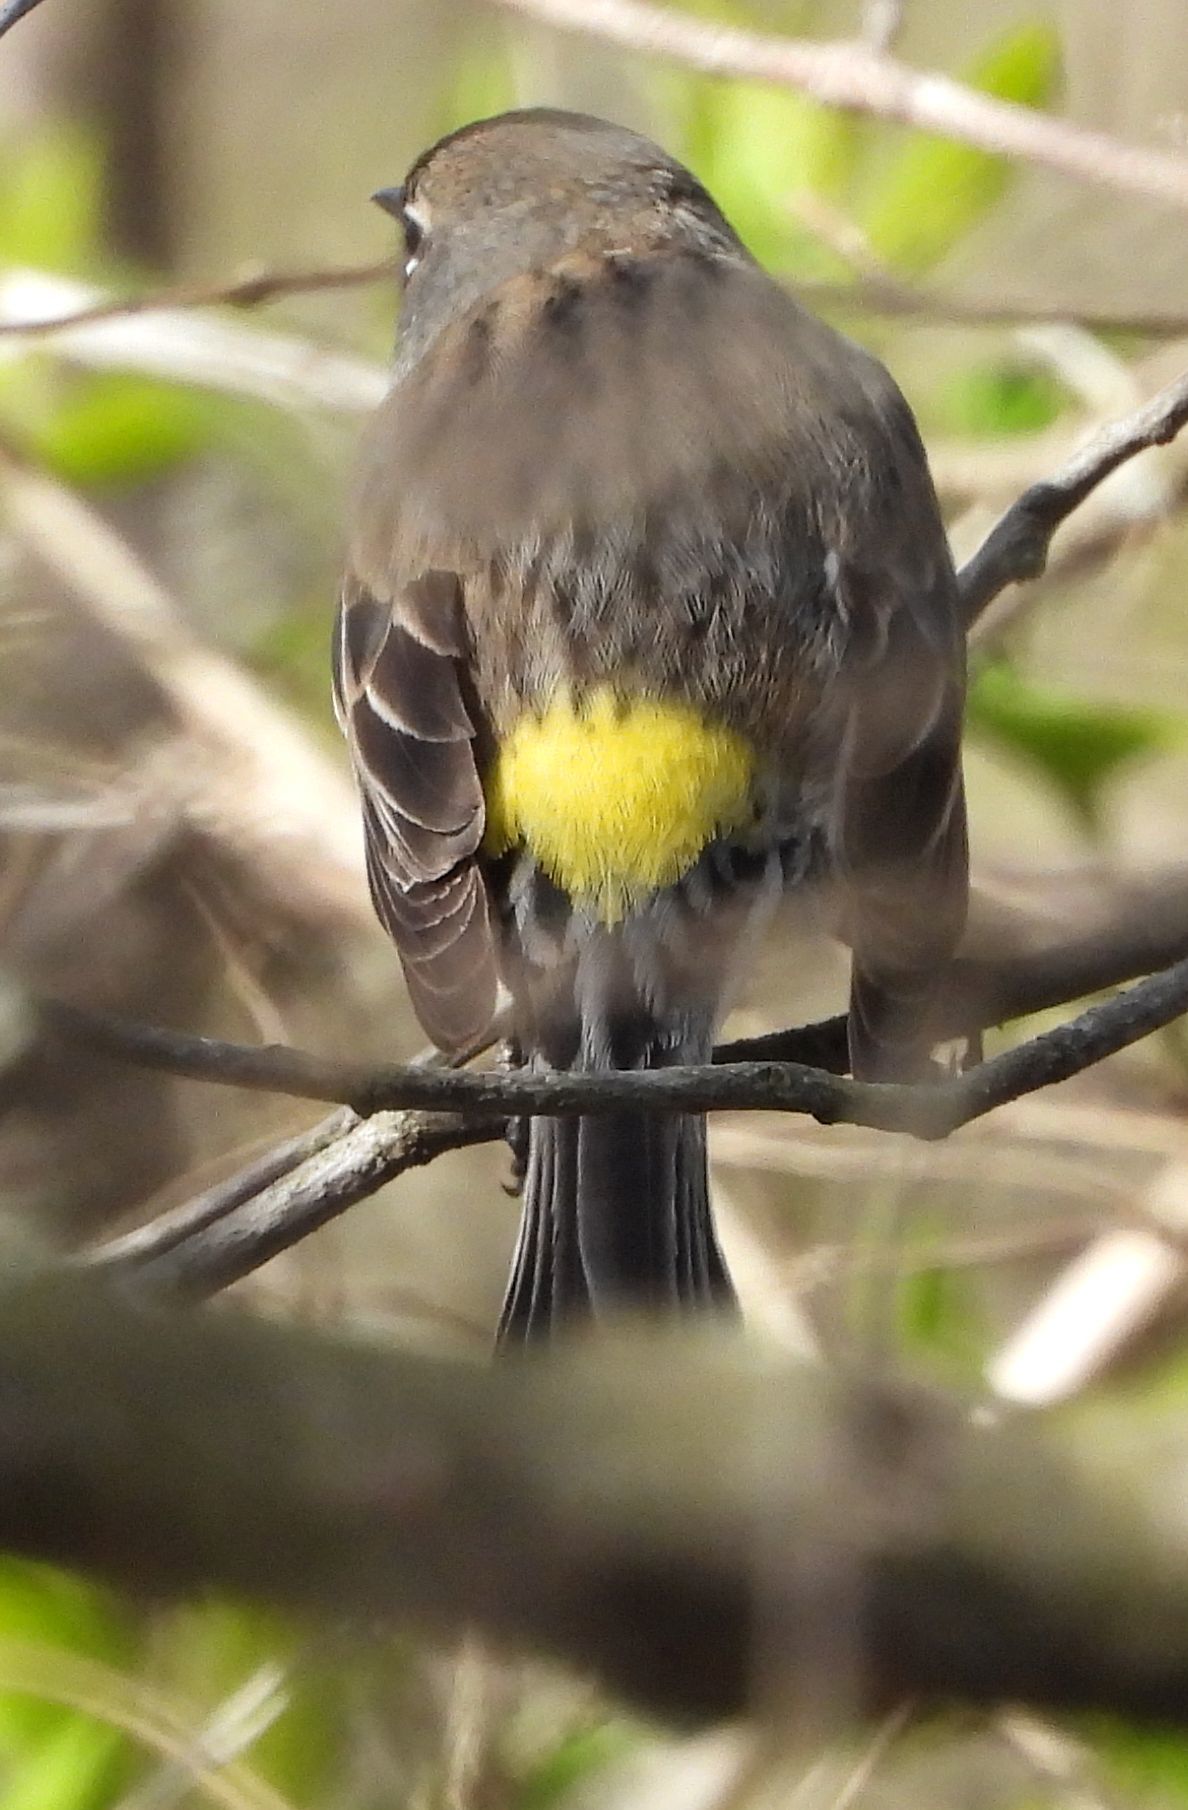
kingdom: Animalia
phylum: Chordata
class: Aves
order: Passeriformes
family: Parulidae
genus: Setophaga
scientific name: Setophaga coronata
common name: Myrtle warbler
